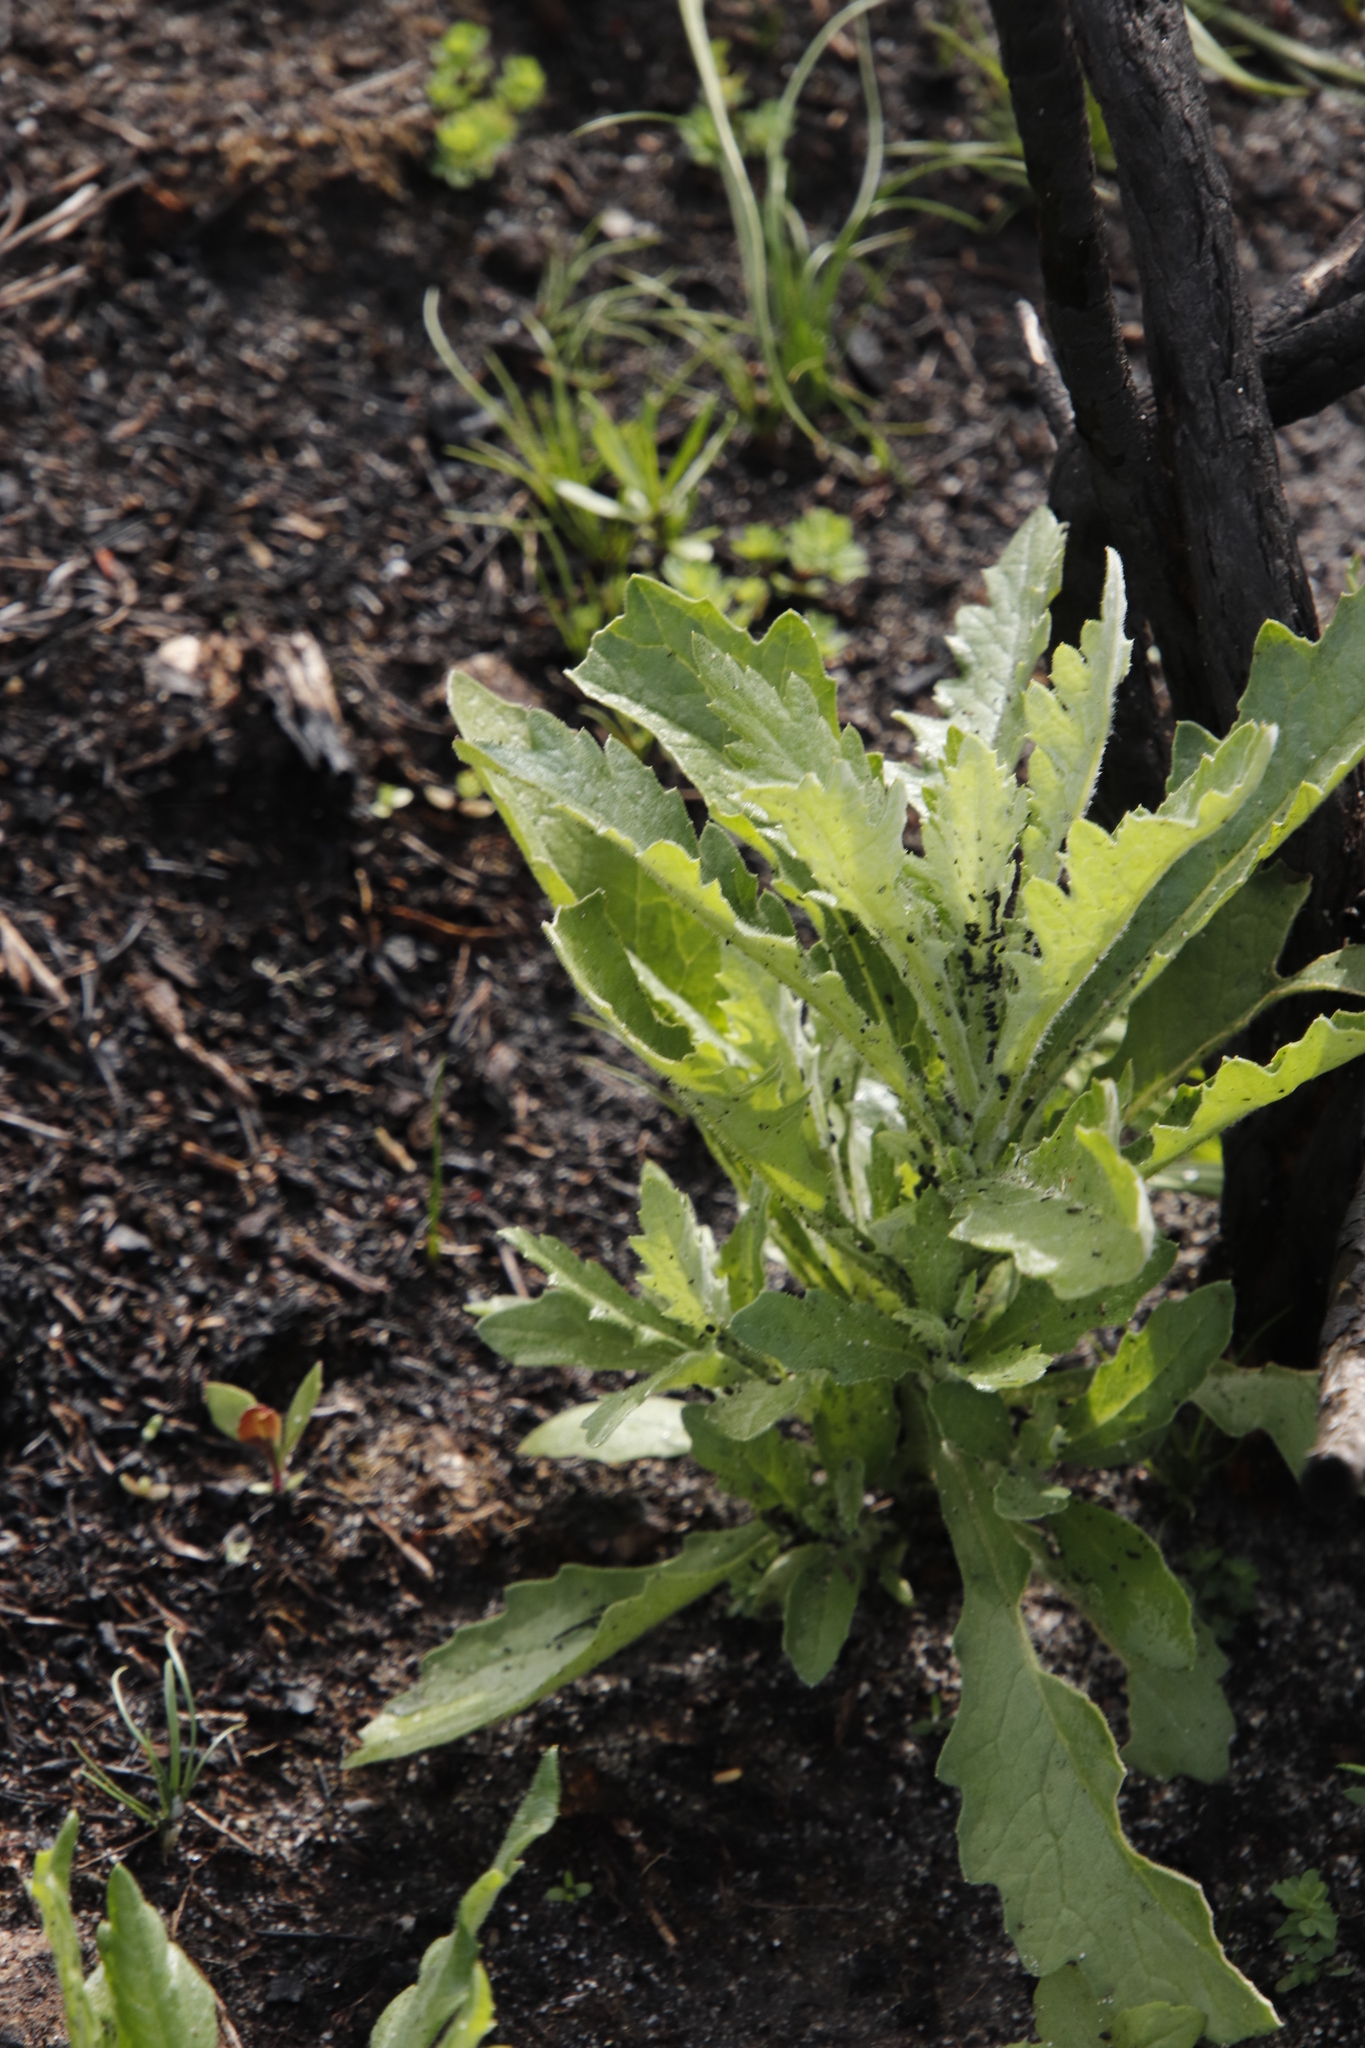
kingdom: Plantae
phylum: Tracheophyta
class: Magnoliopsida
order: Asterales
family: Asteraceae
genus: Senecio
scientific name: Senecio pterophorus
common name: Shoddy ragwort
